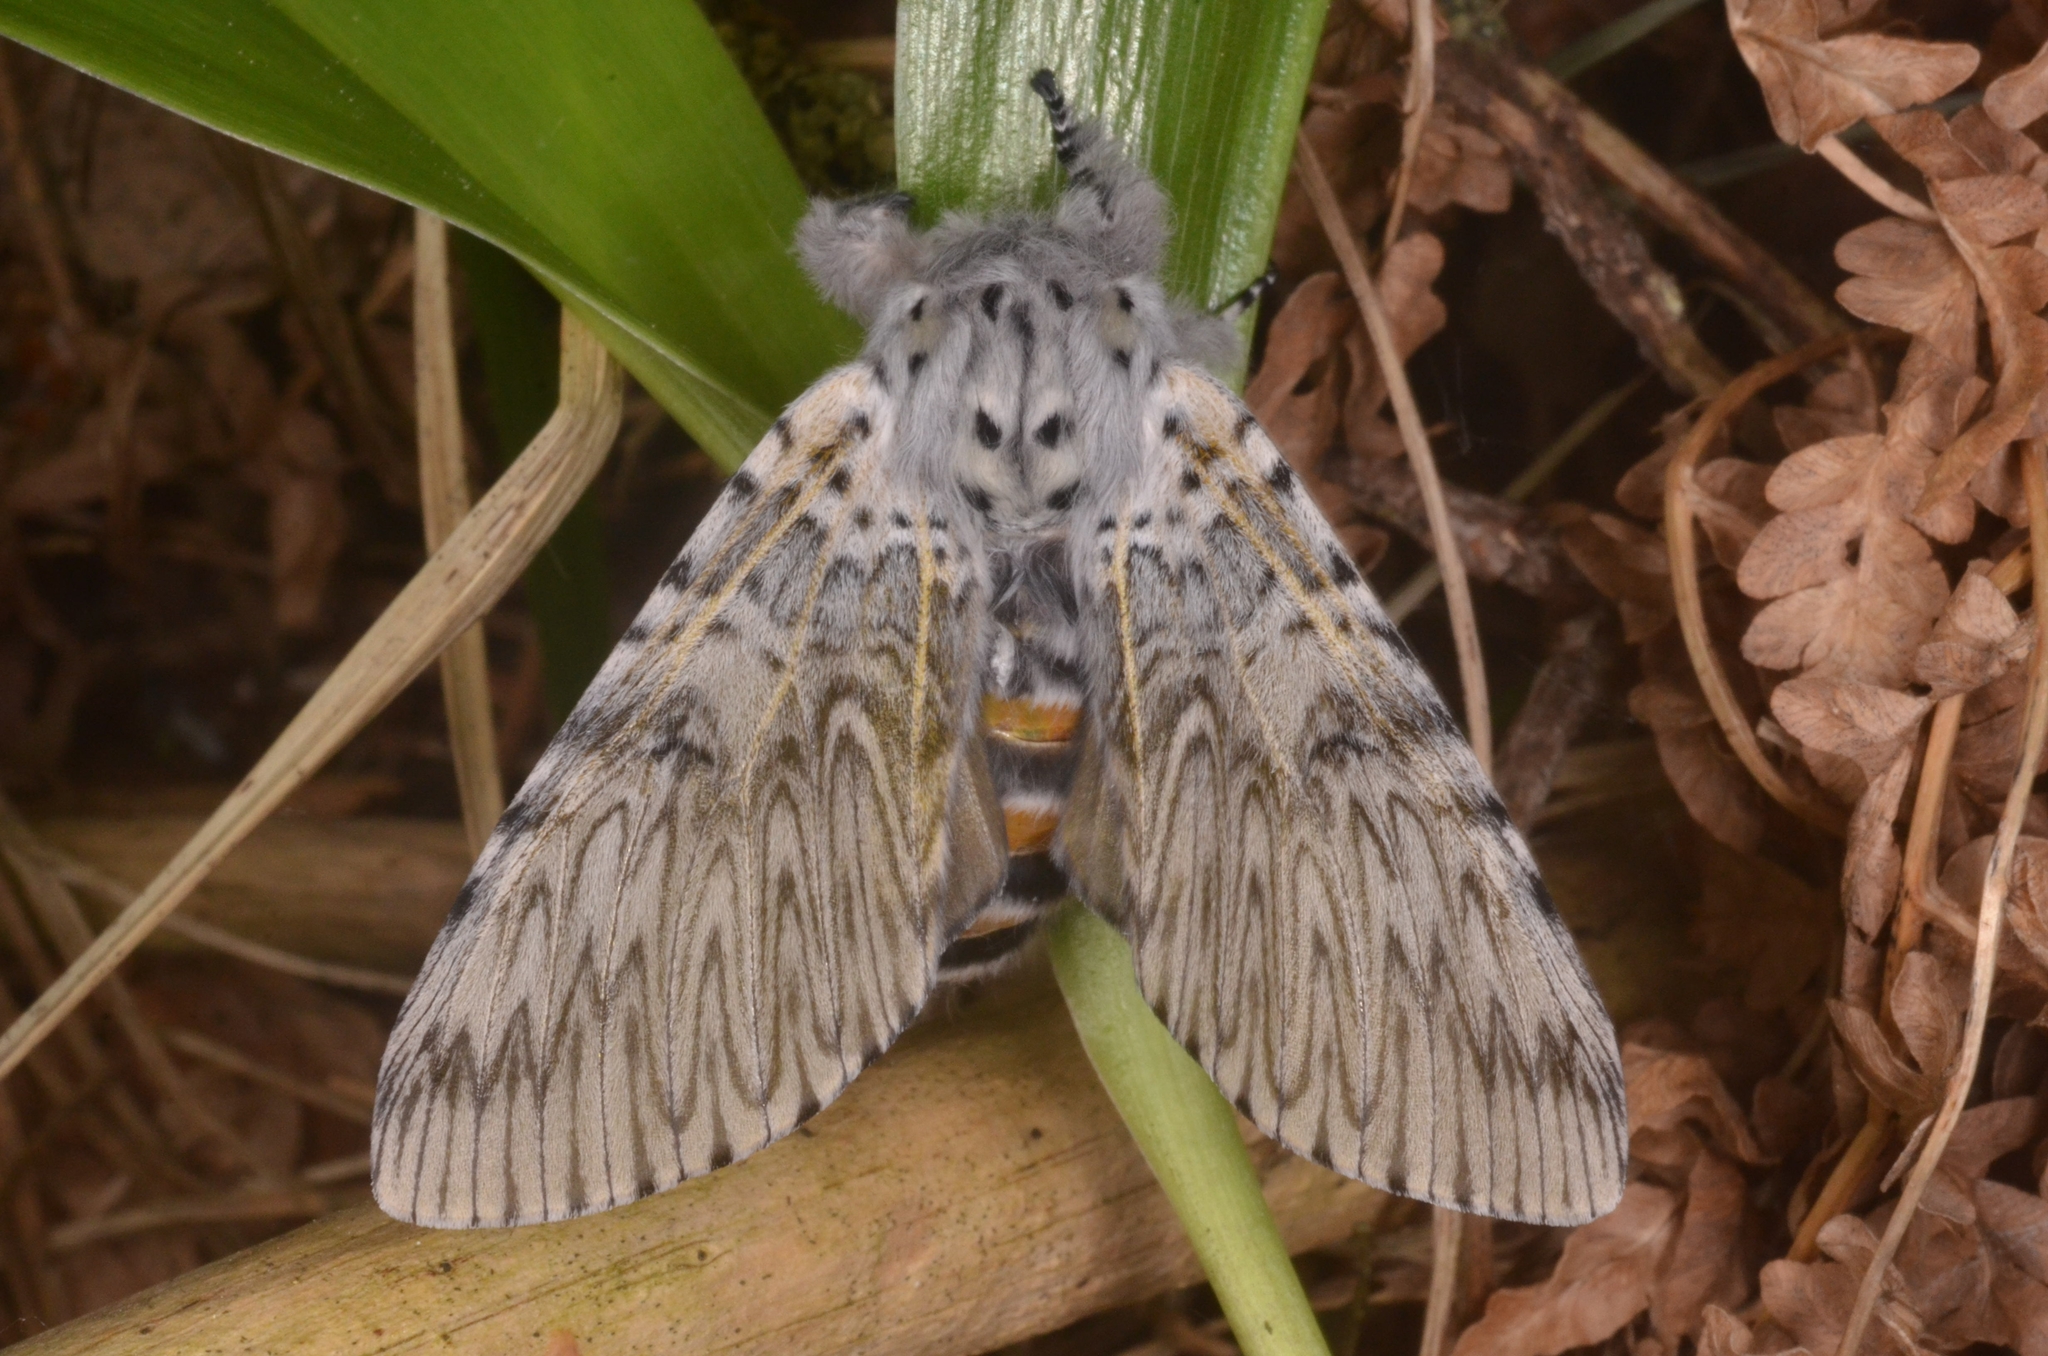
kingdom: Animalia
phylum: Arthropoda
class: Insecta
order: Lepidoptera
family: Notodontidae
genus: Cerura
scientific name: Cerura vinula
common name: Puss moth
